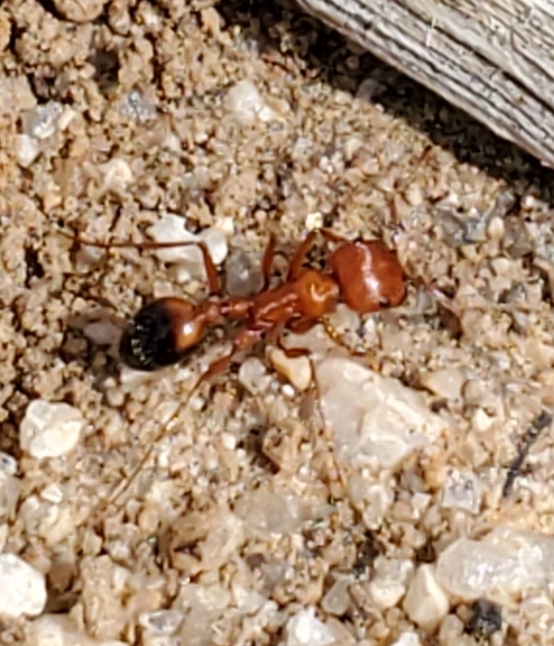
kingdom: Animalia
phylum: Arthropoda
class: Insecta
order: Hymenoptera
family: Formicidae
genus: Pogonomyrmex
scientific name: Pogonomyrmex californicus
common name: California harvester ant
